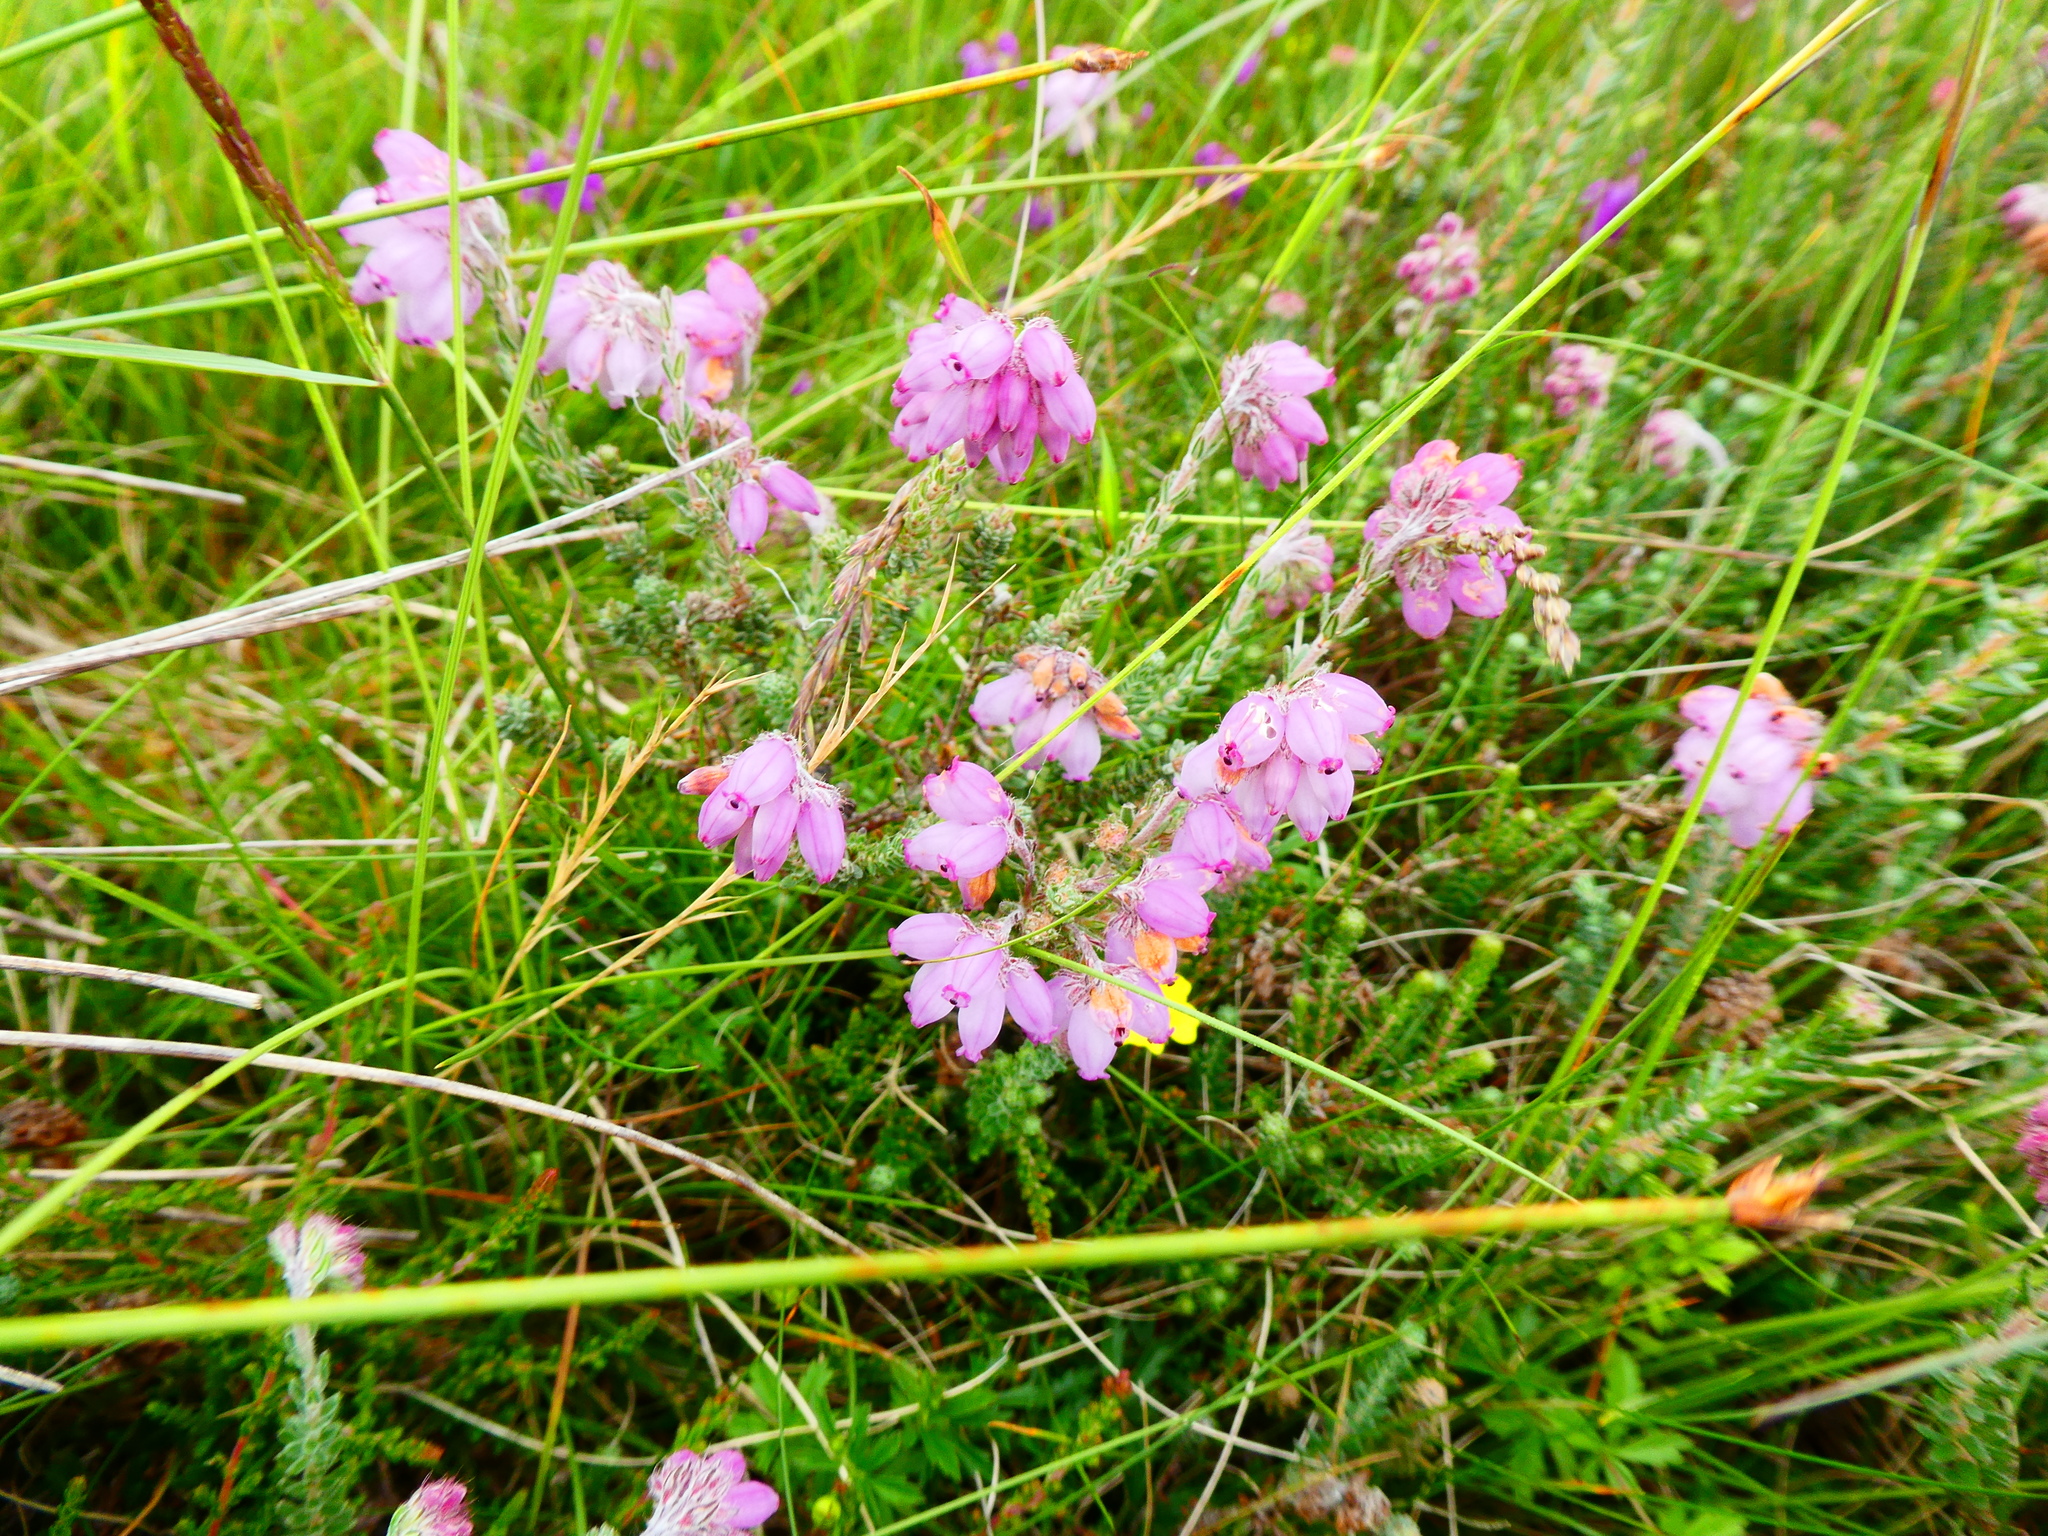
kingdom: Plantae
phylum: Tracheophyta
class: Magnoliopsida
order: Ericales
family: Ericaceae
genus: Erica
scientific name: Erica tetralix
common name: Cross-leaved heath
